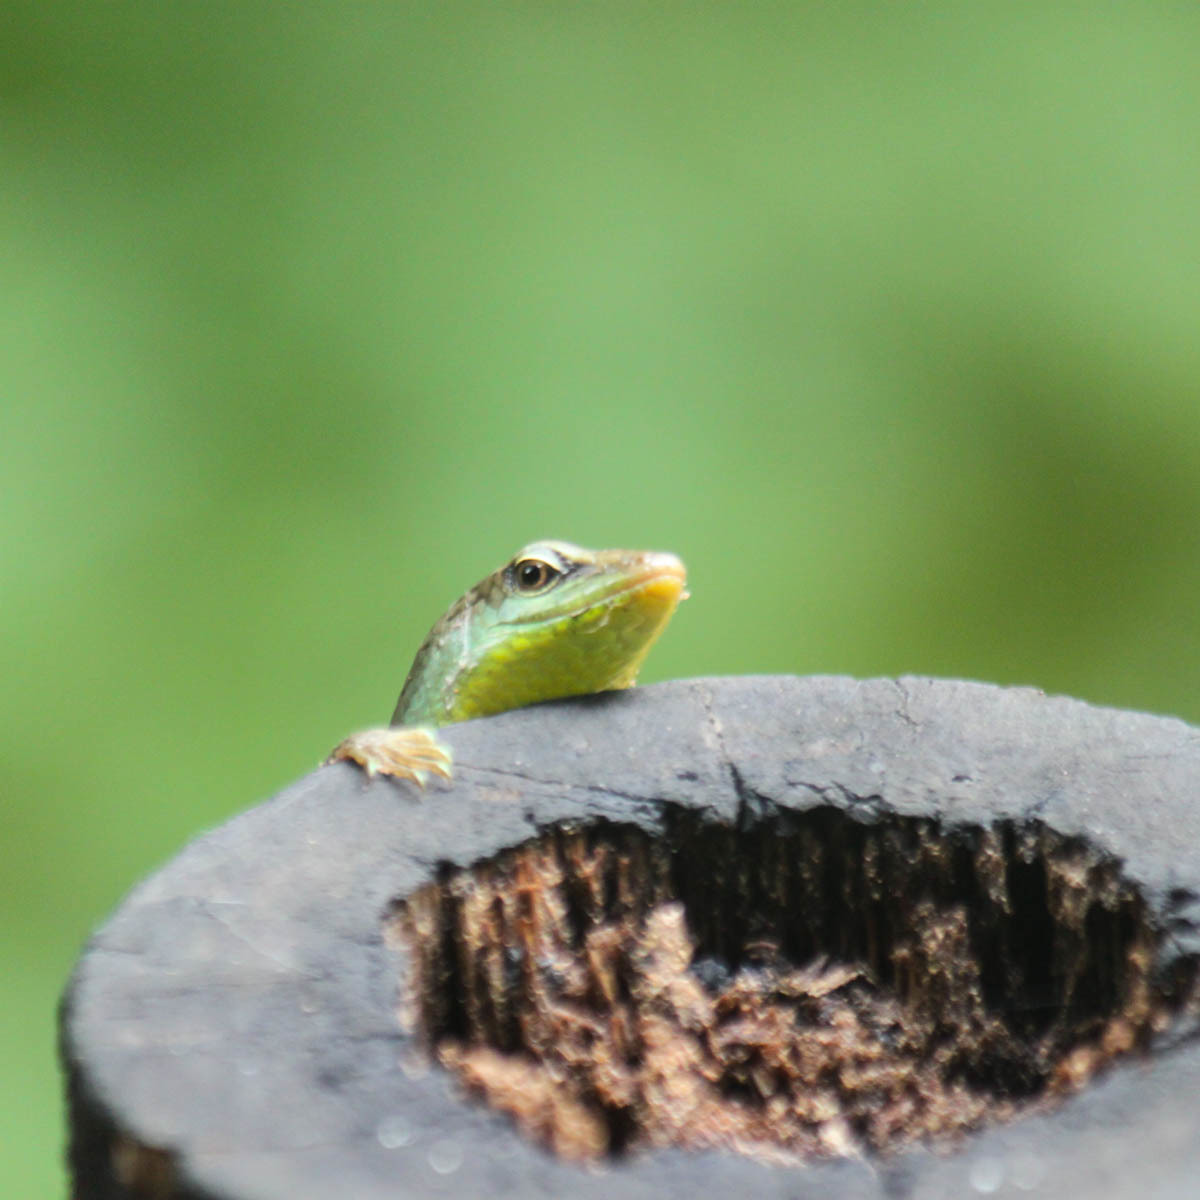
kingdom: Animalia
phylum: Chordata
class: Squamata
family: Scincidae
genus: Dasia
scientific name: Dasia olivacea
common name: Olive dasia
